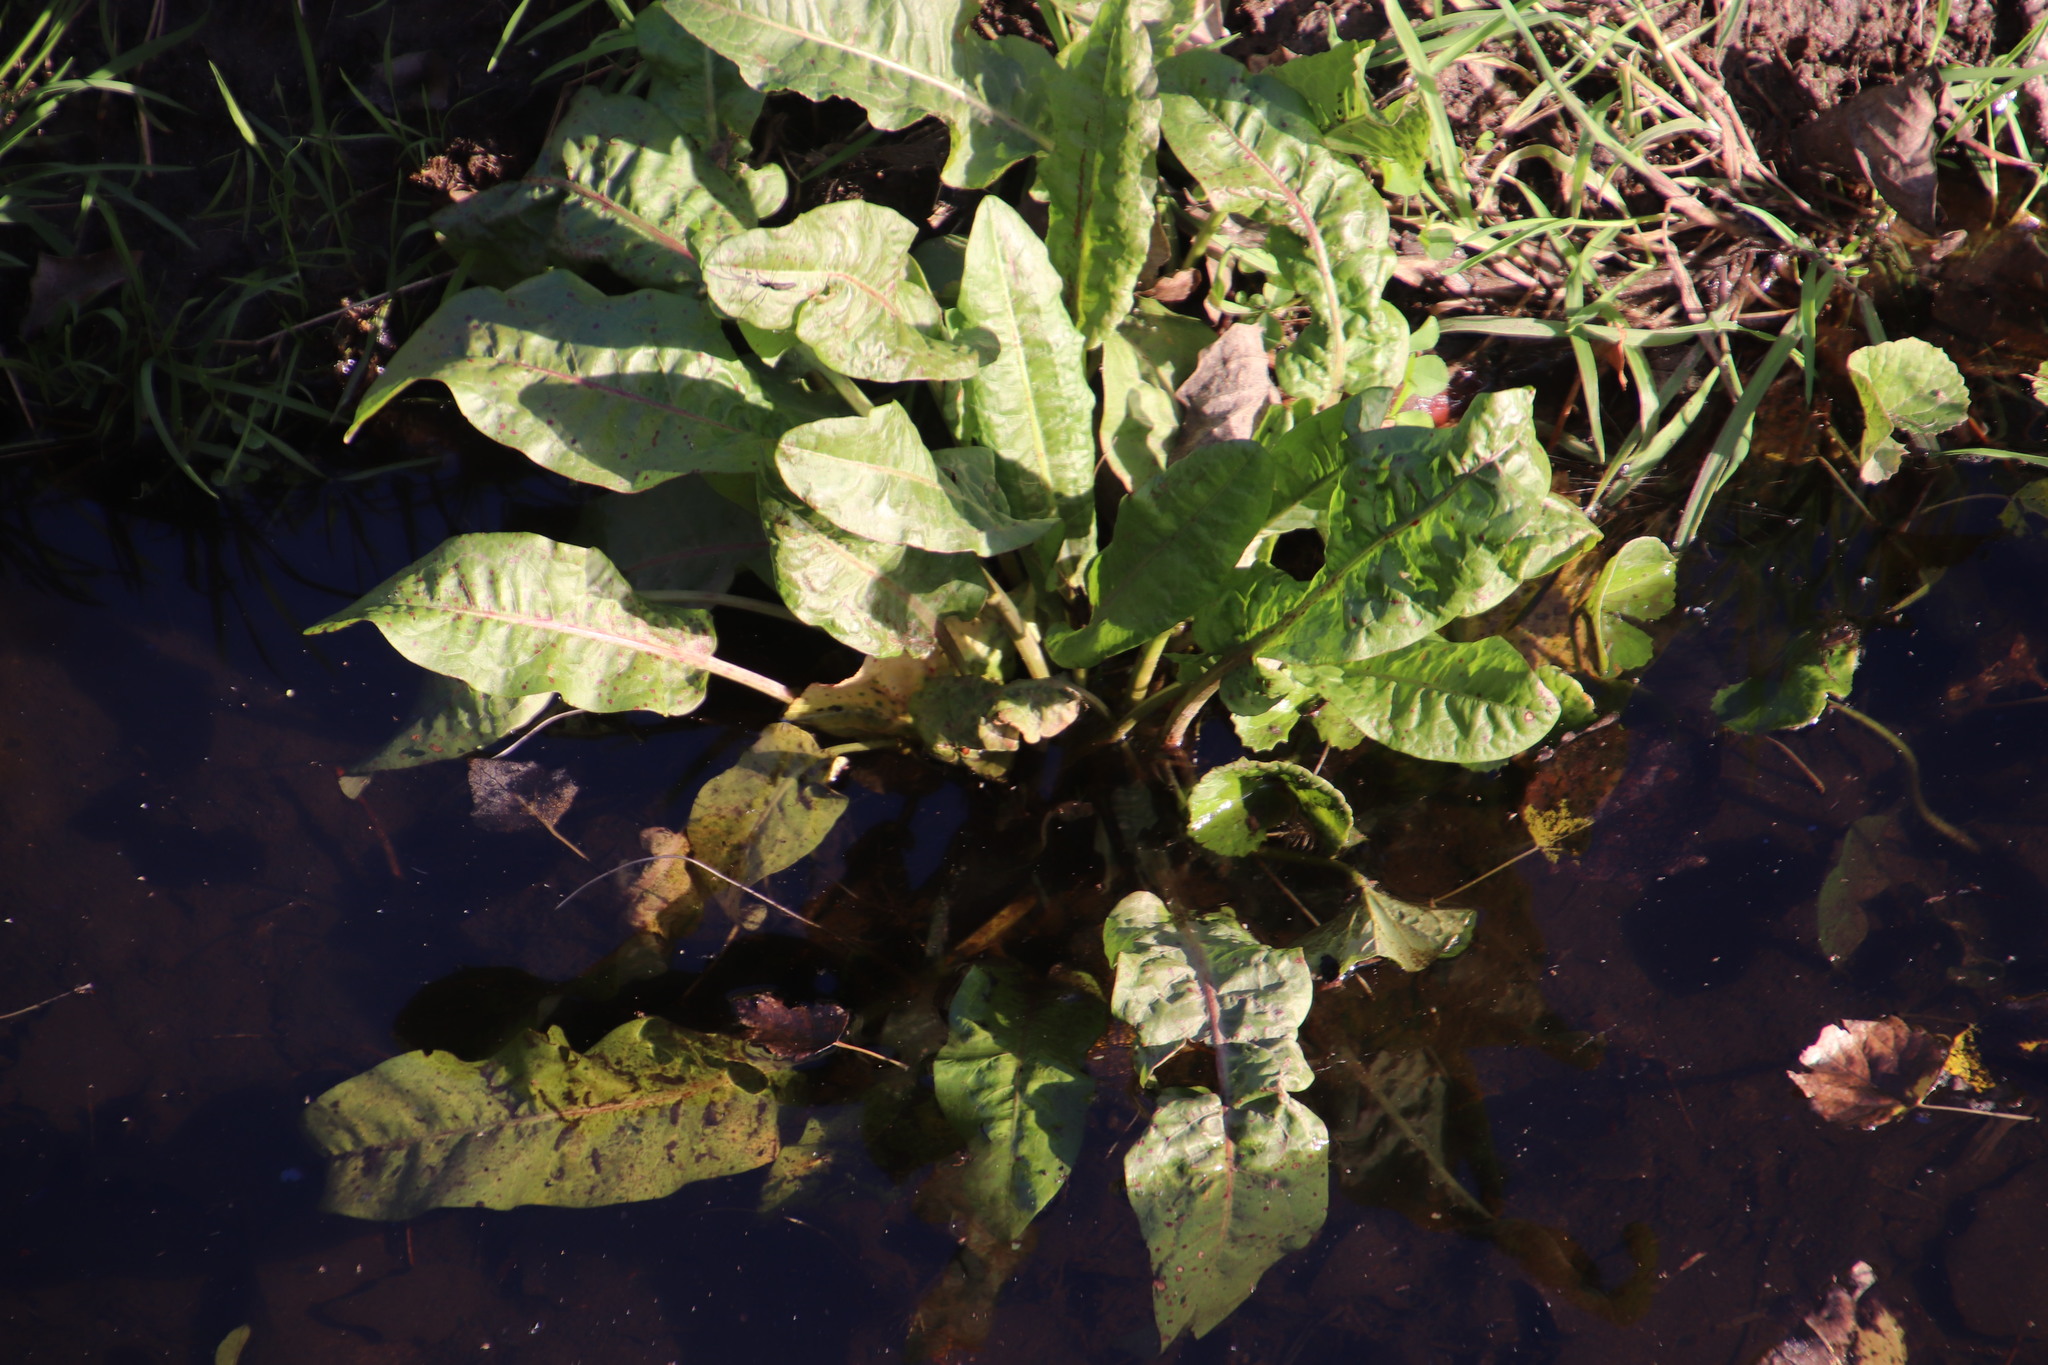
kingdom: Plantae
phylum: Tracheophyta
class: Magnoliopsida
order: Caryophyllales
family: Polygonaceae
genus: Rumex
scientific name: Rumex crispus
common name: Curled dock
